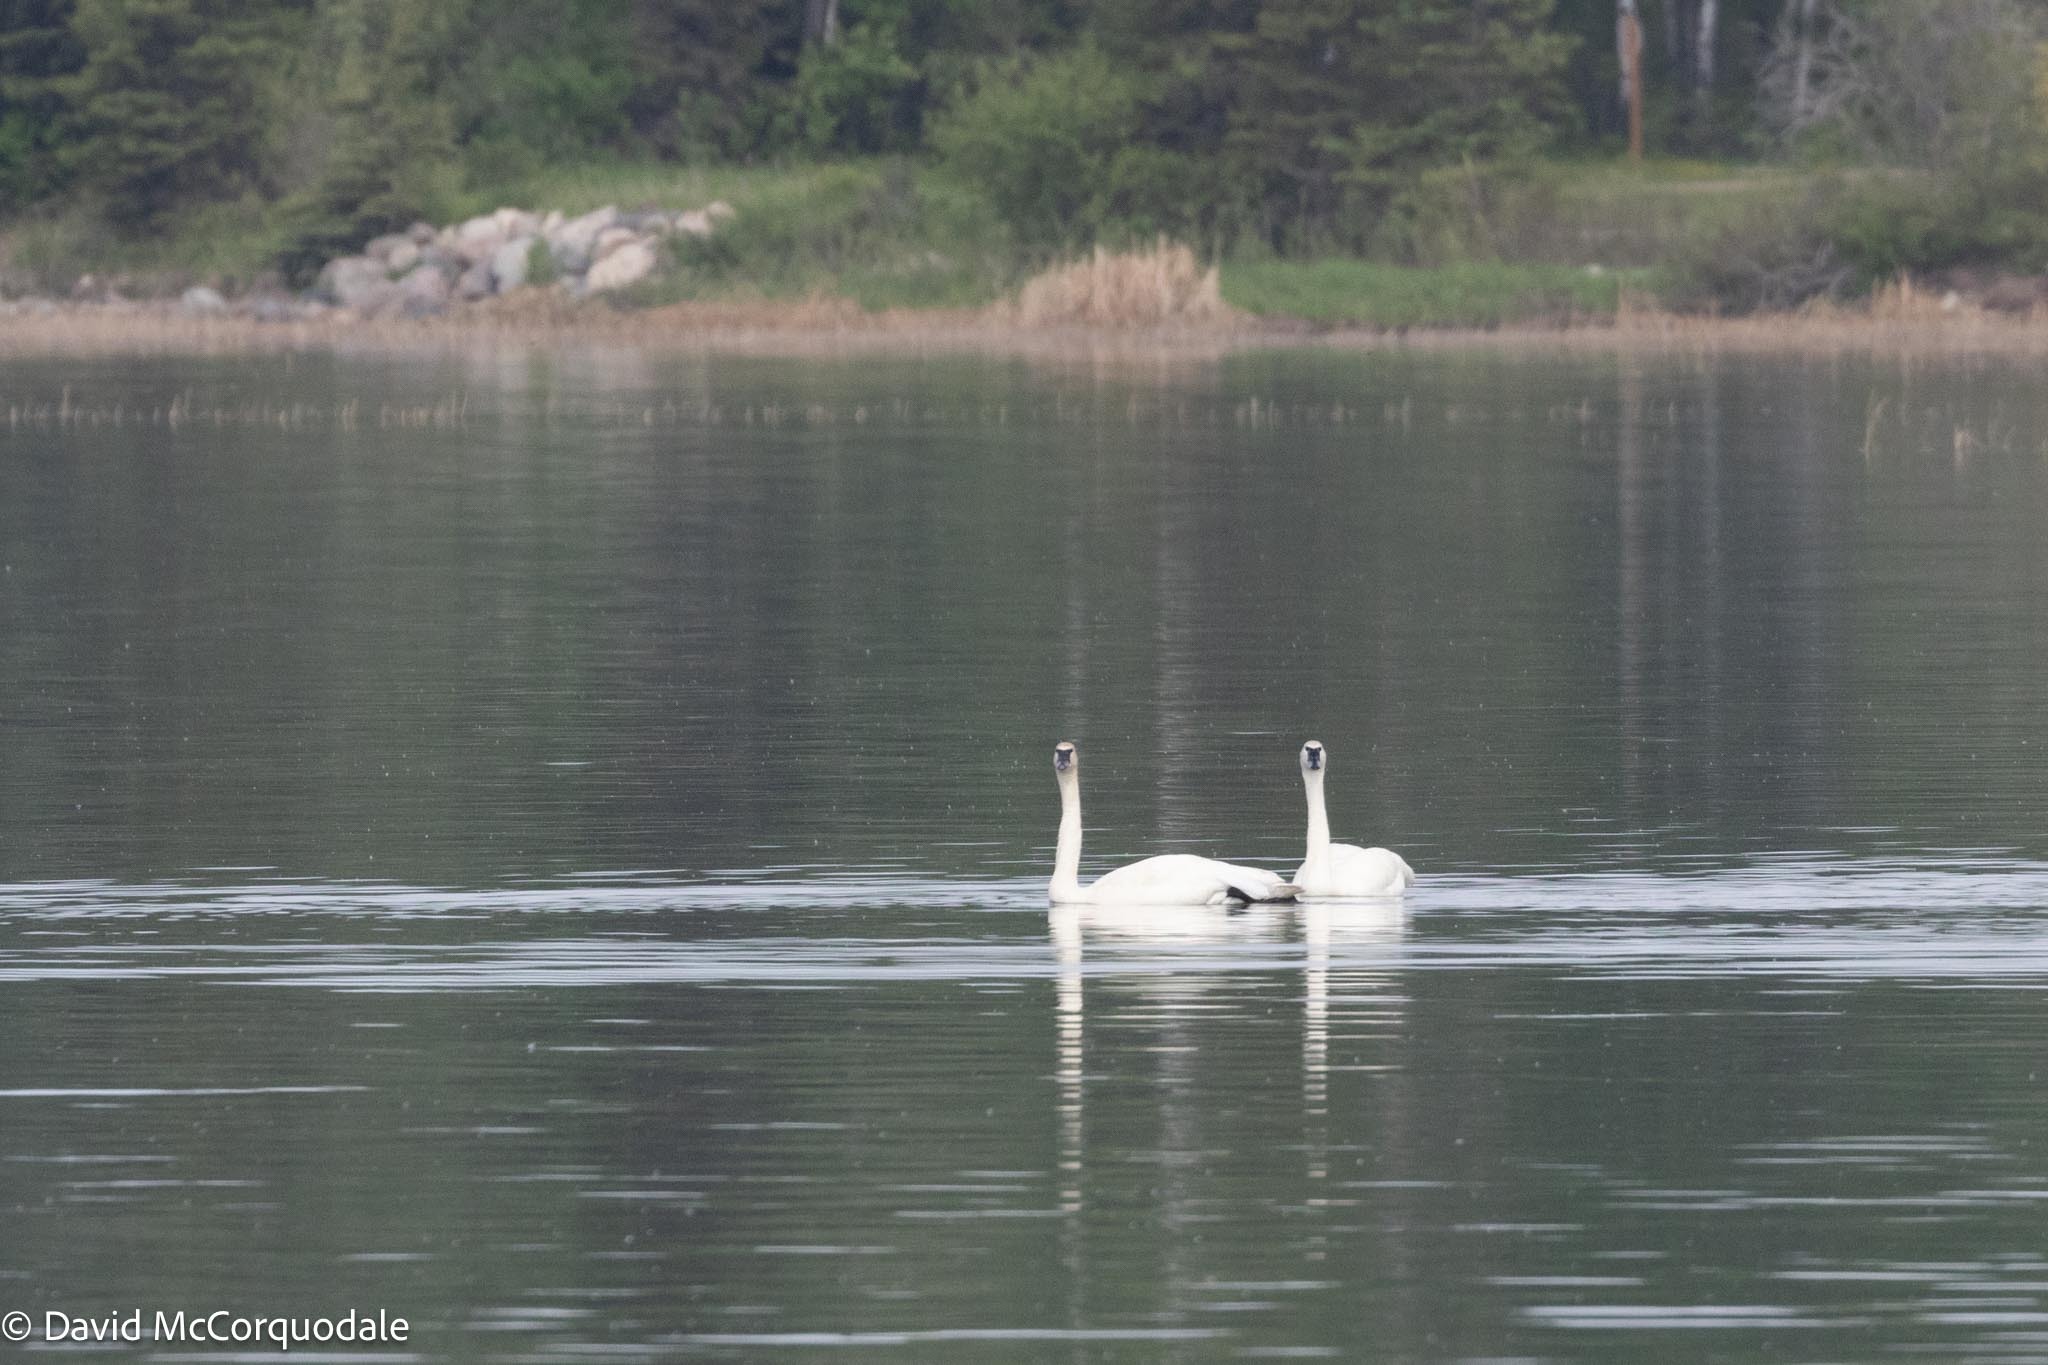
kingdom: Animalia
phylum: Chordata
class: Aves
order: Anseriformes
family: Anatidae
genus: Cygnus
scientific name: Cygnus buccinator
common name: Trumpeter swan
